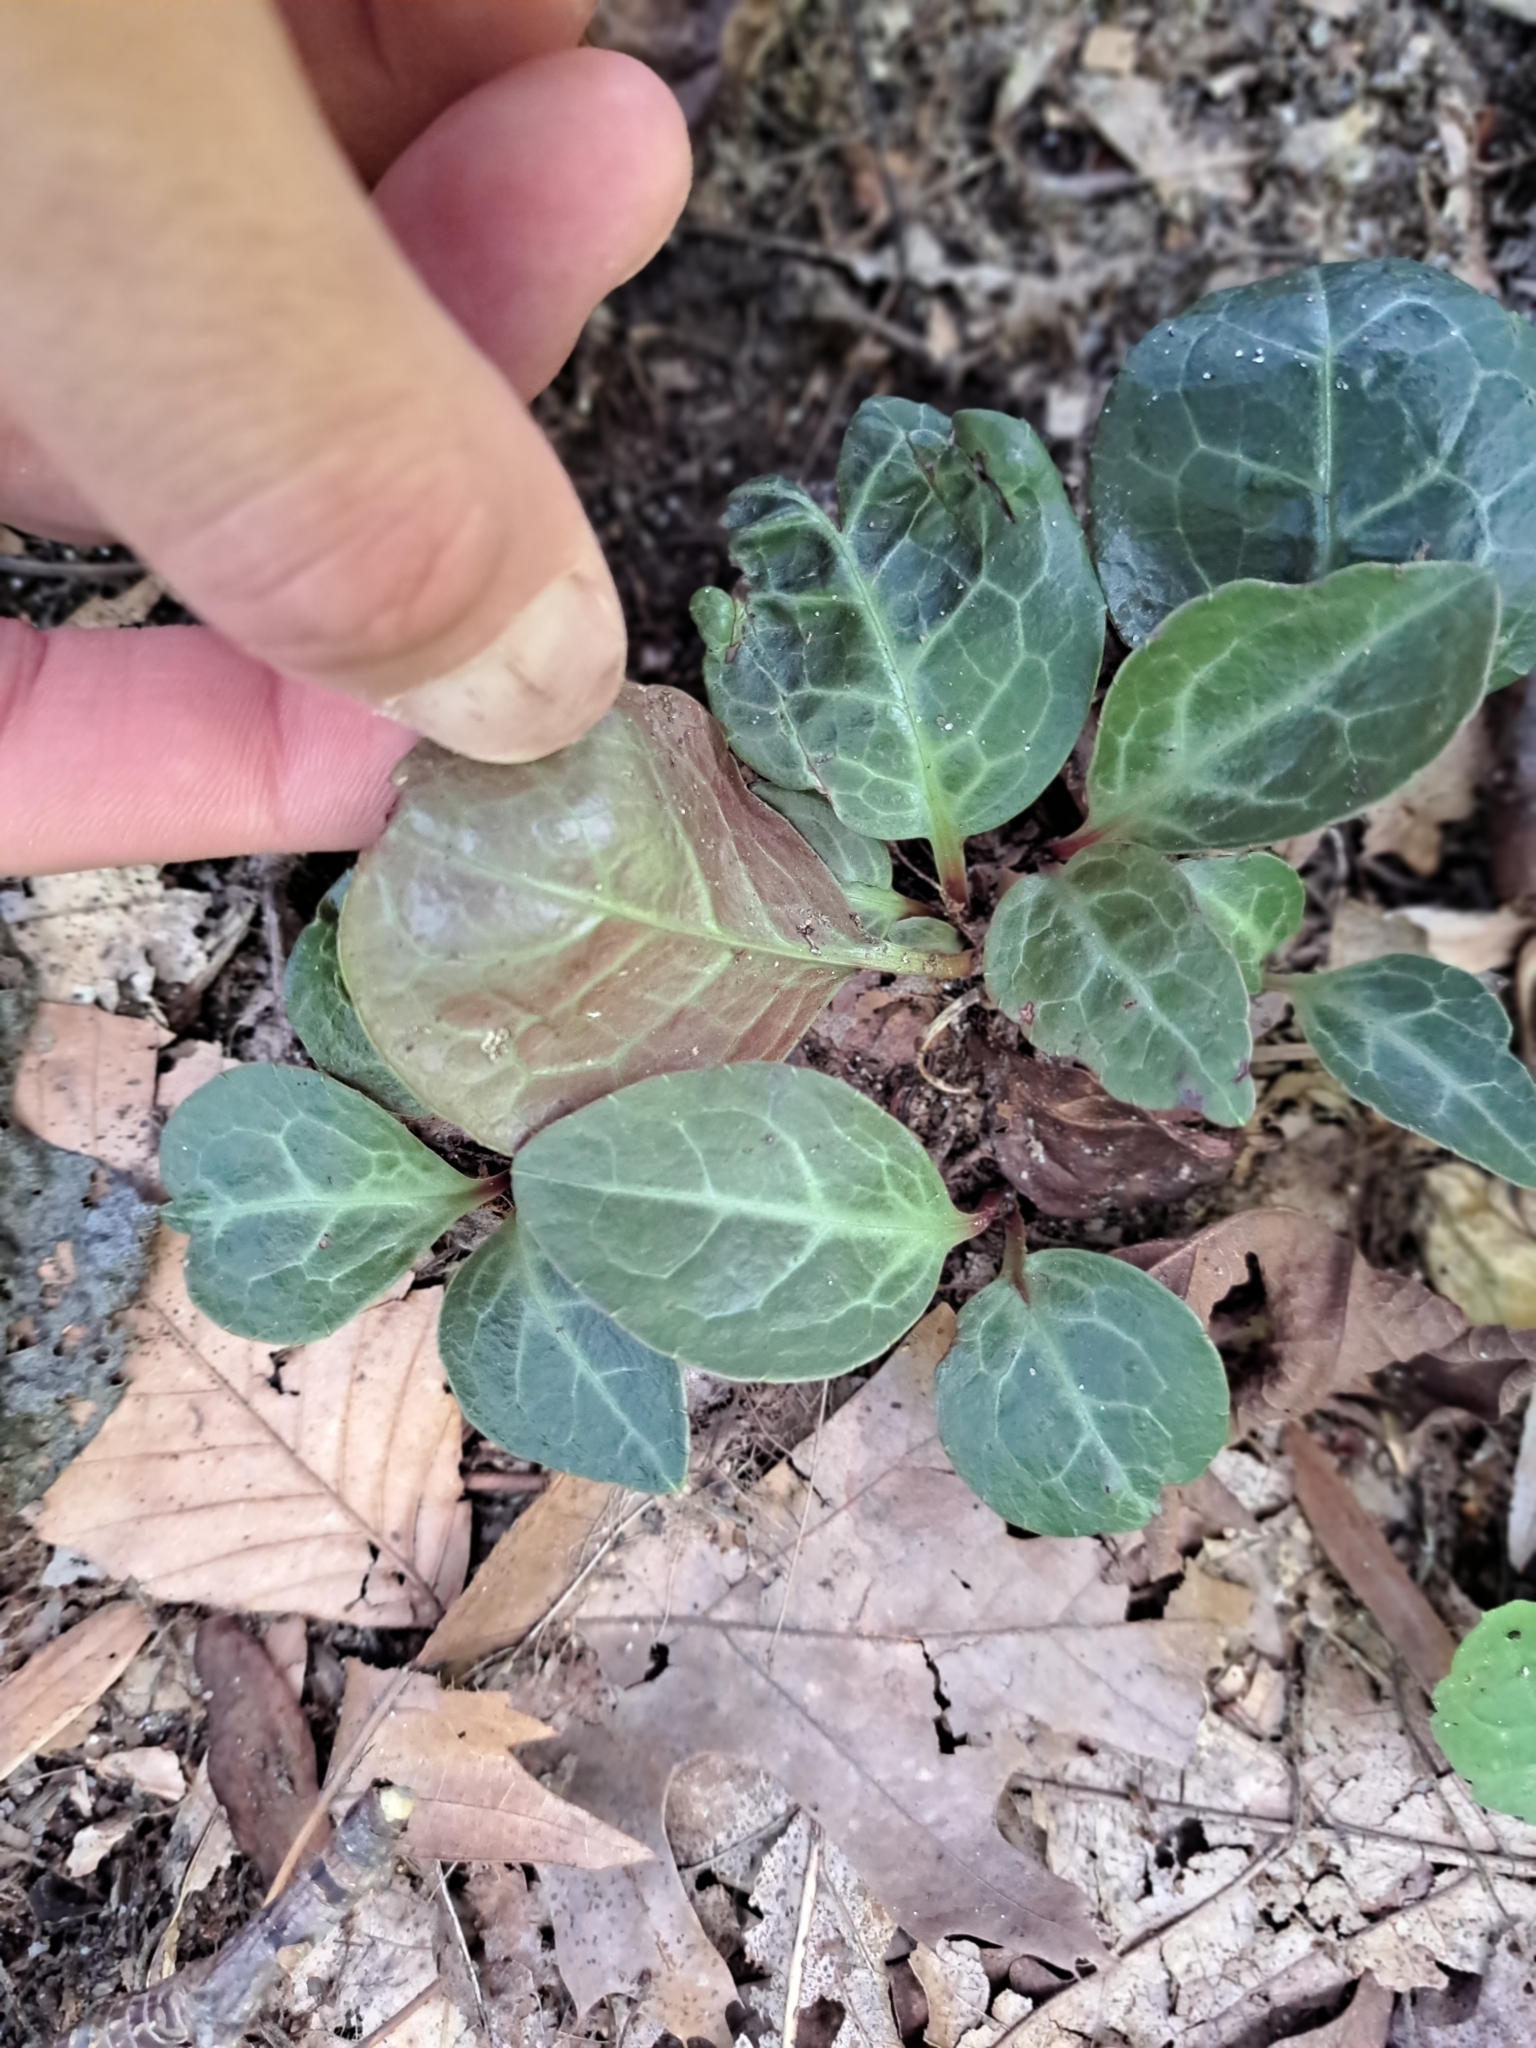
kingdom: Plantae
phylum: Tracheophyta
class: Magnoliopsida
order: Ericales
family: Ericaceae
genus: Pyrola
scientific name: Pyrola americana
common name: American wintergreen
